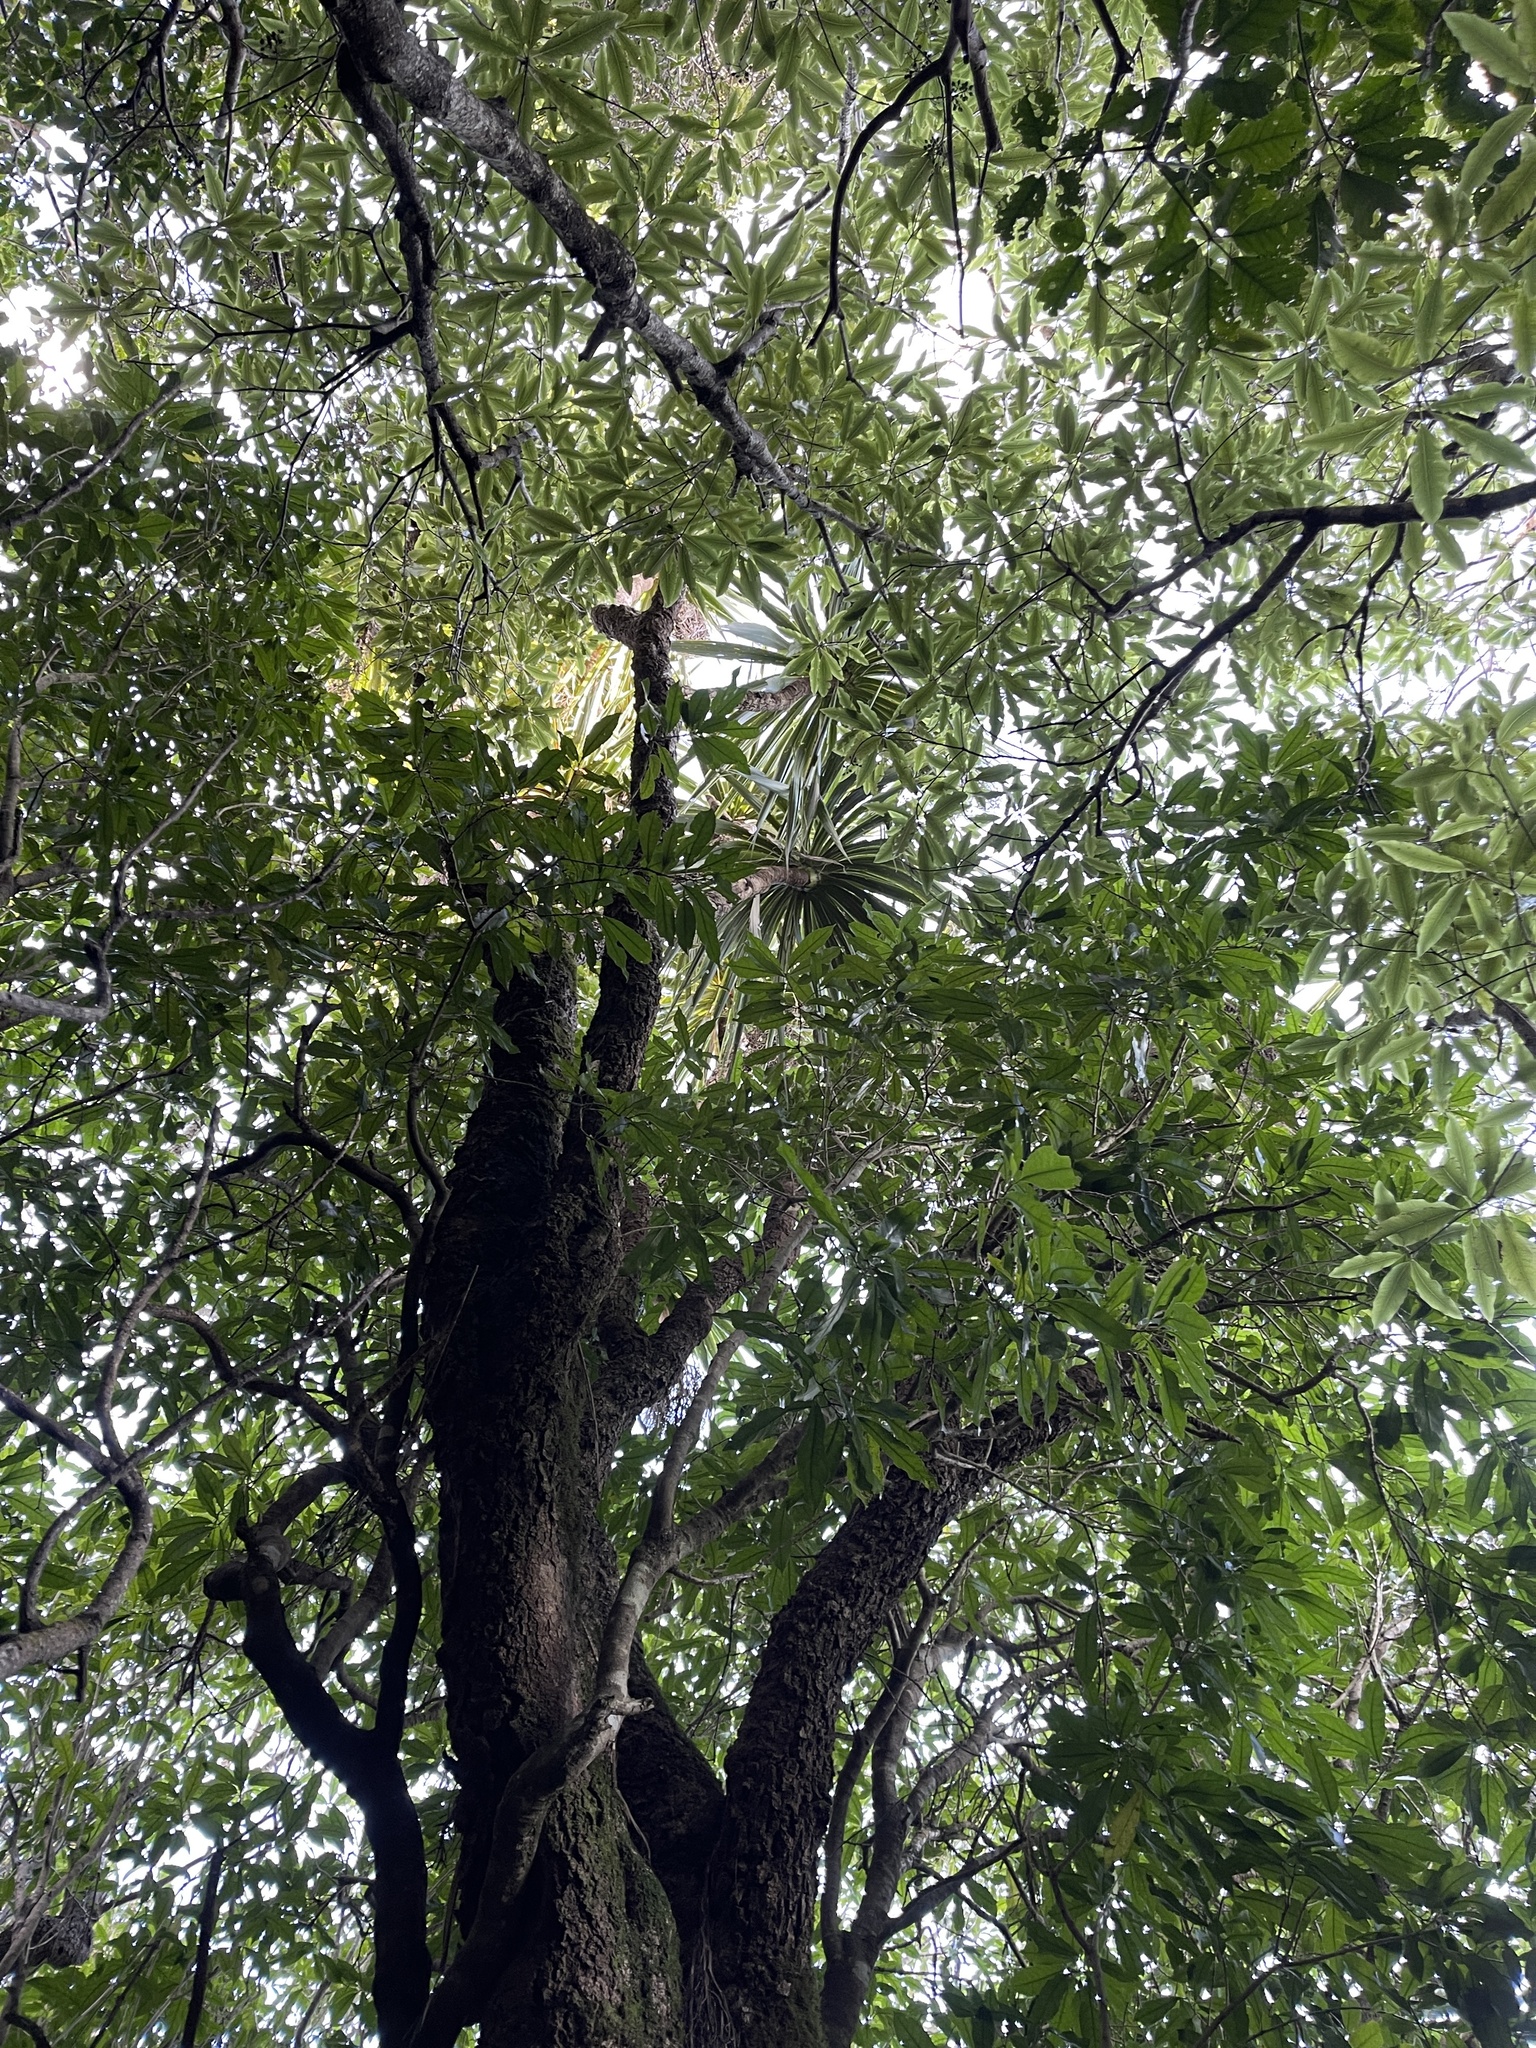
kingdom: Plantae
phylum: Tracheophyta
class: Liliopsida
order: Asparagales
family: Asparagaceae
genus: Cordyline
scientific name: Cordyline australis
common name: Cabbage-palm
